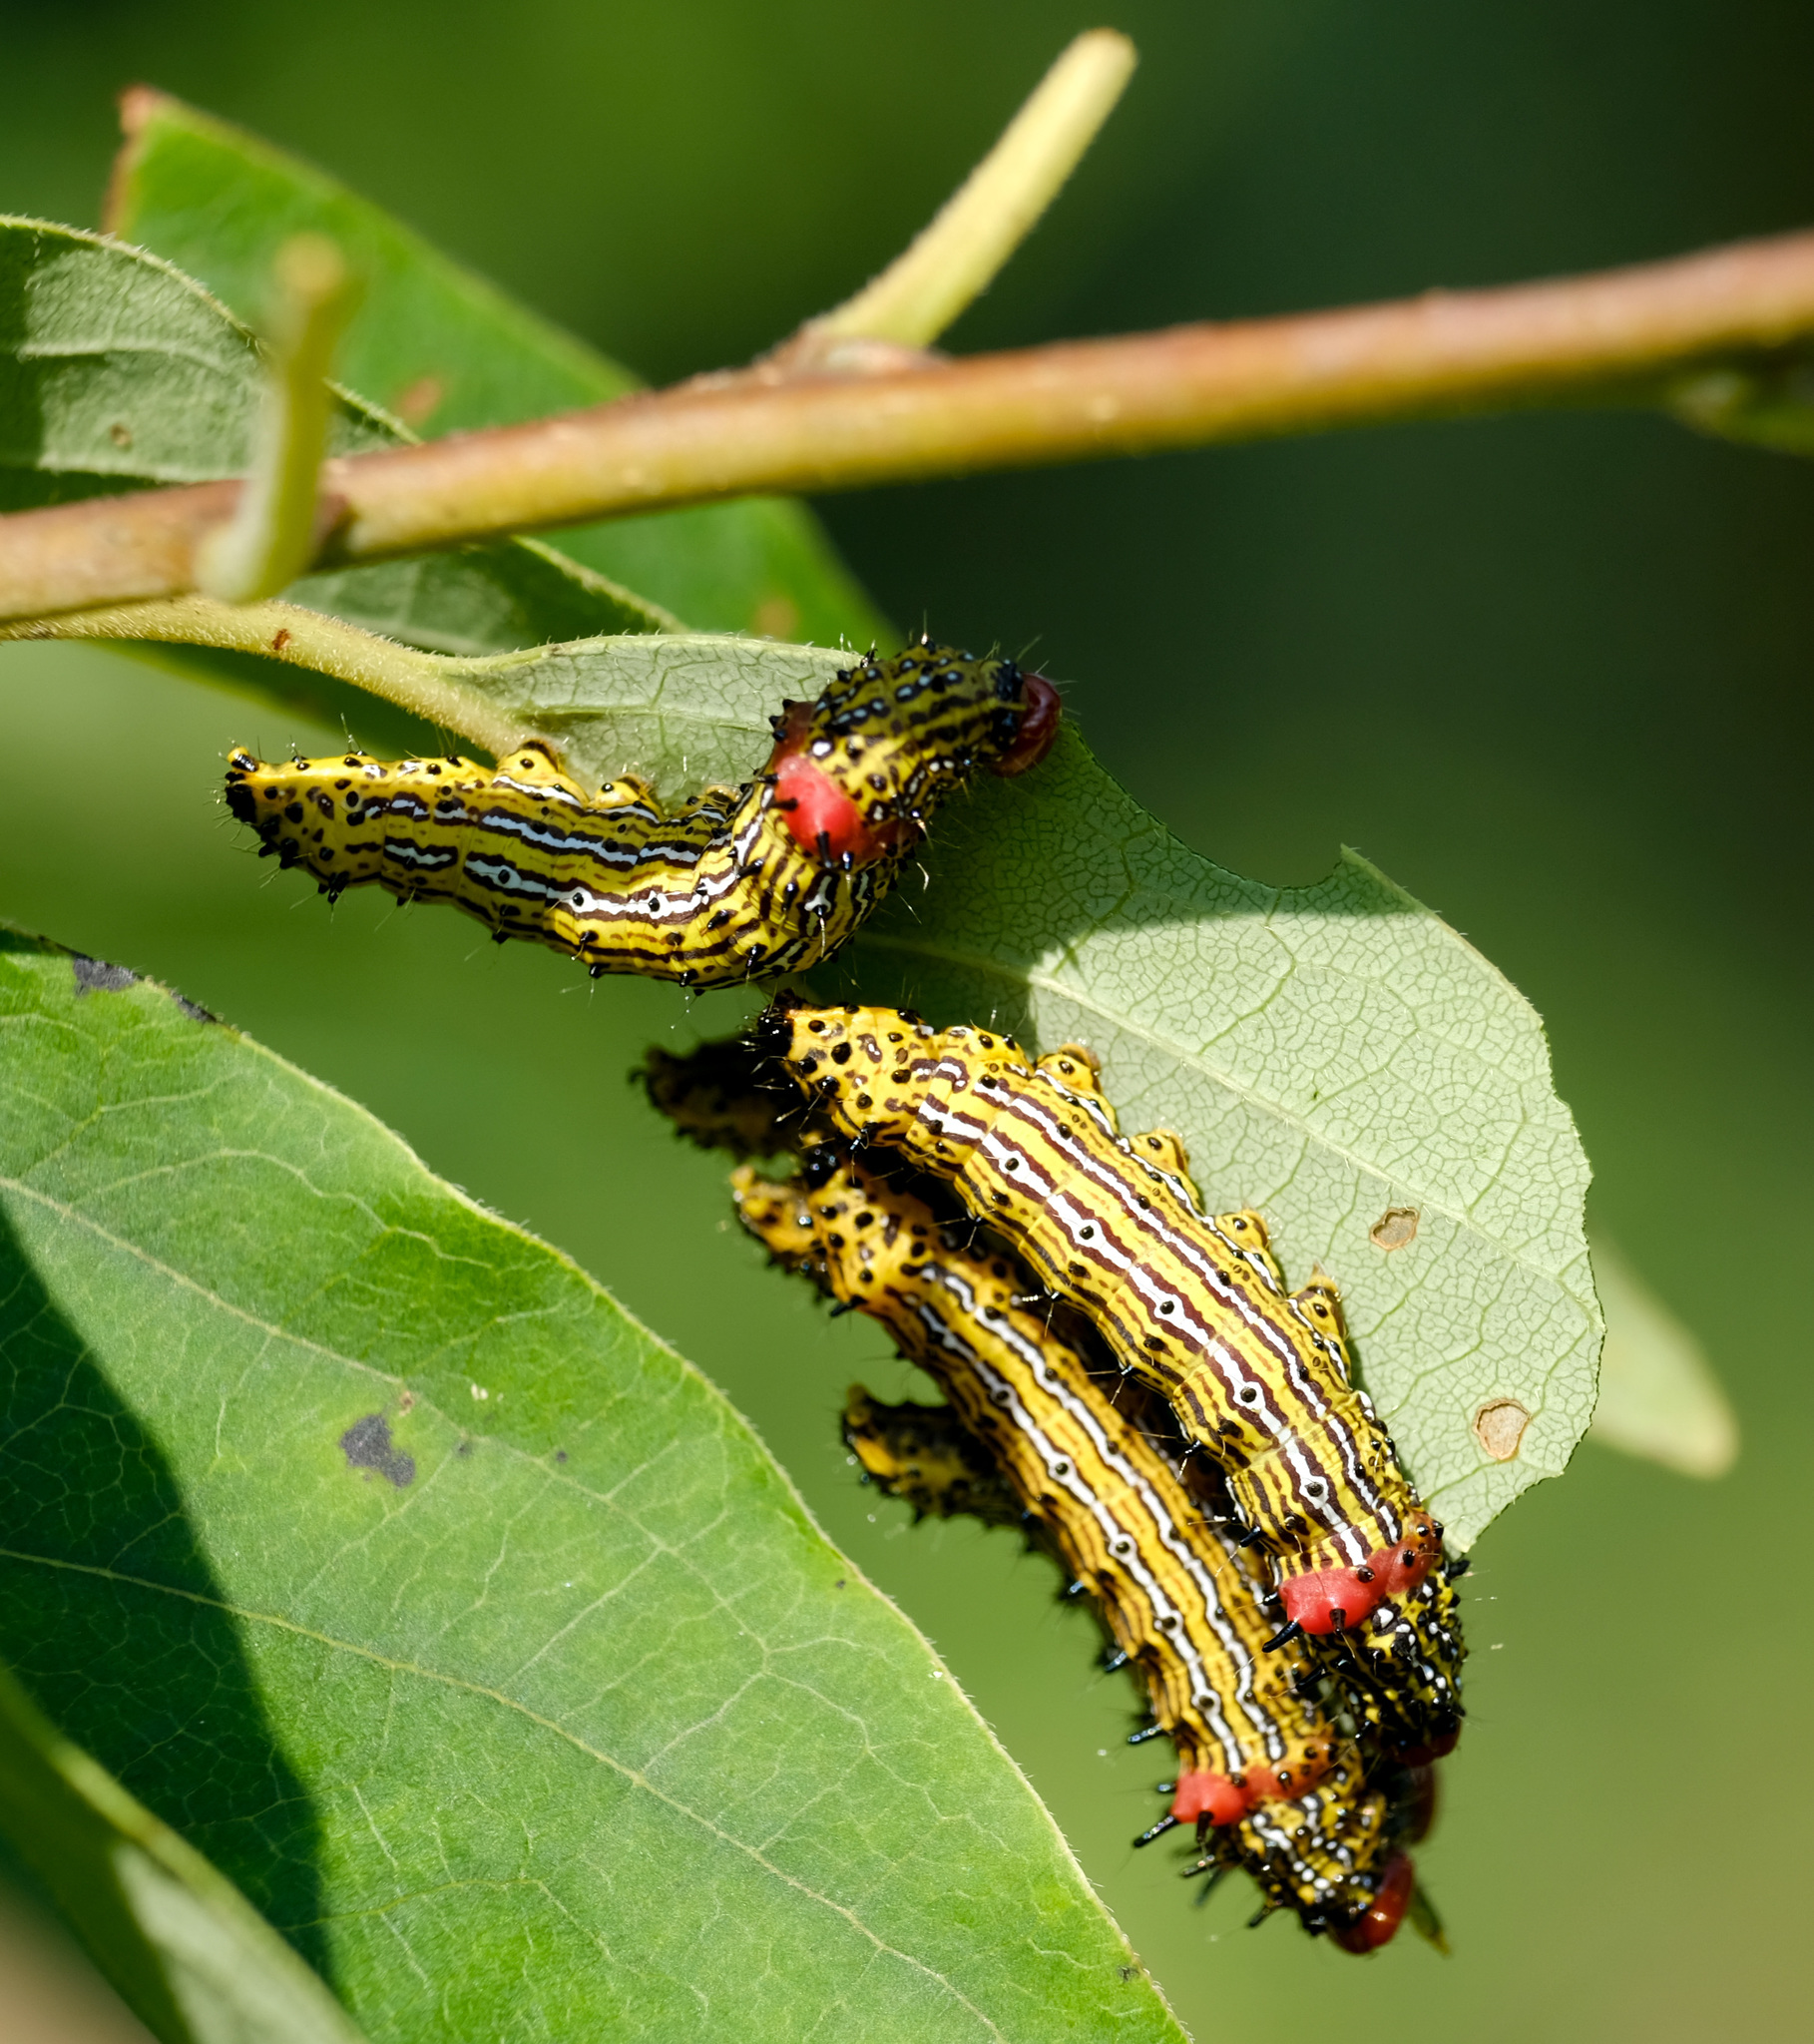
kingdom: Animalia
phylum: Arthropoda
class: Insecta
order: Lepidoptera
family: Notodontidae
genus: Schizura
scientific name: Schizura
